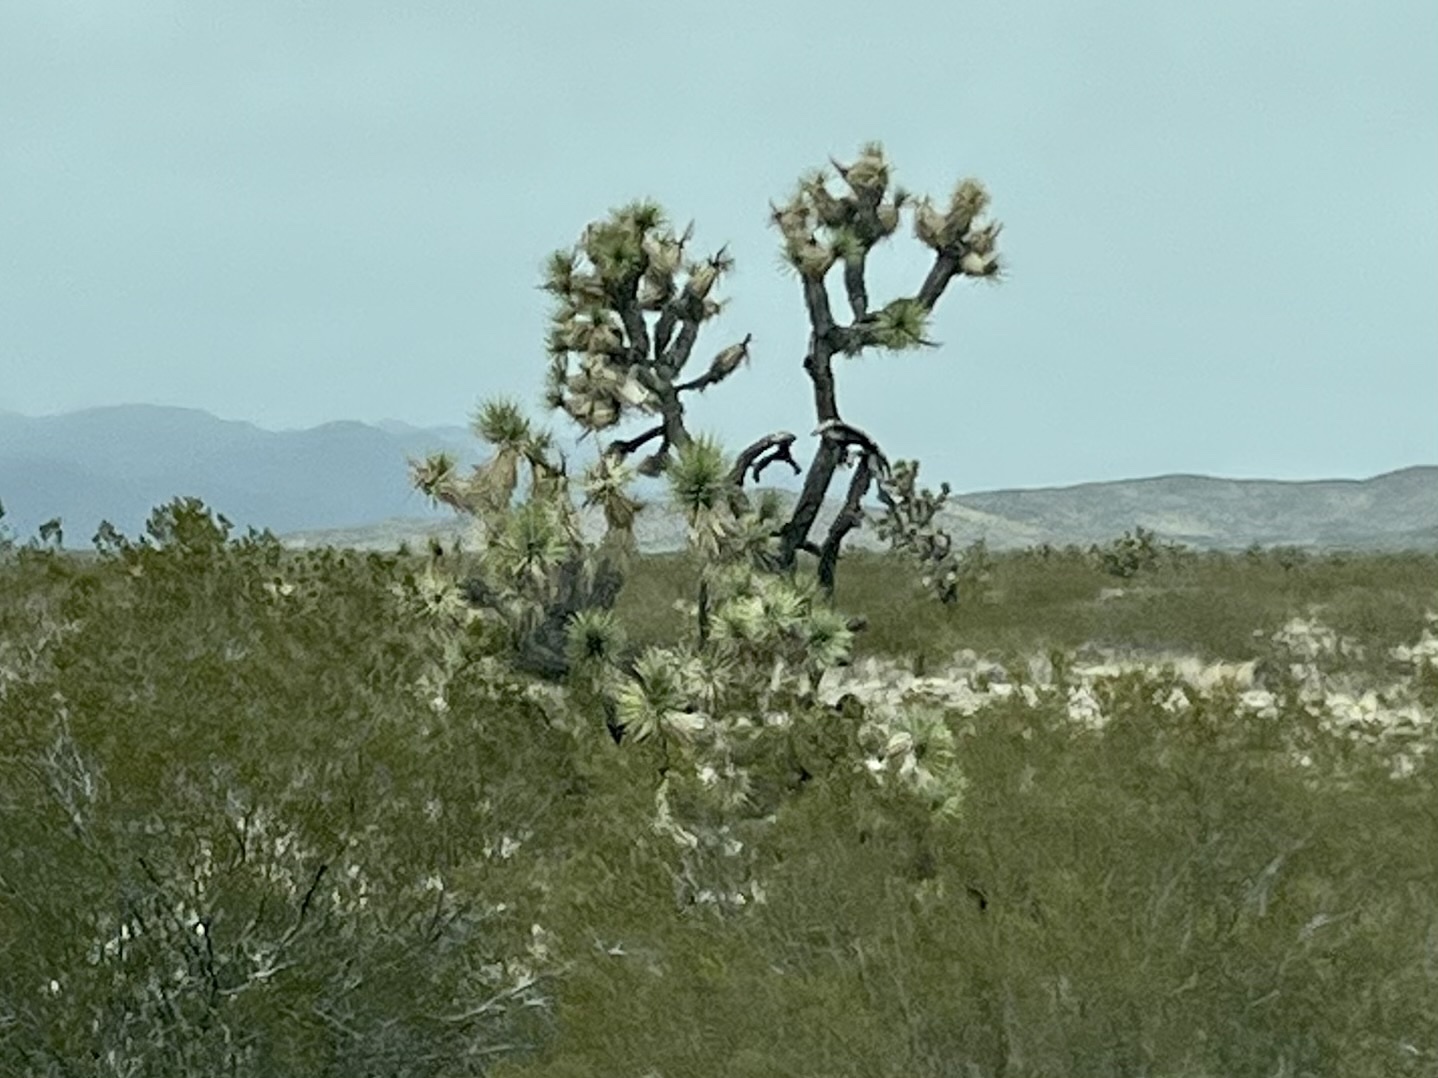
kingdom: Plantae
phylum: Tracheophyta
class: Liliopsida
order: Asparagales
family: Asparagaceae
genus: Yucca
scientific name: Yucca brevifolia
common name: Joshua tree
